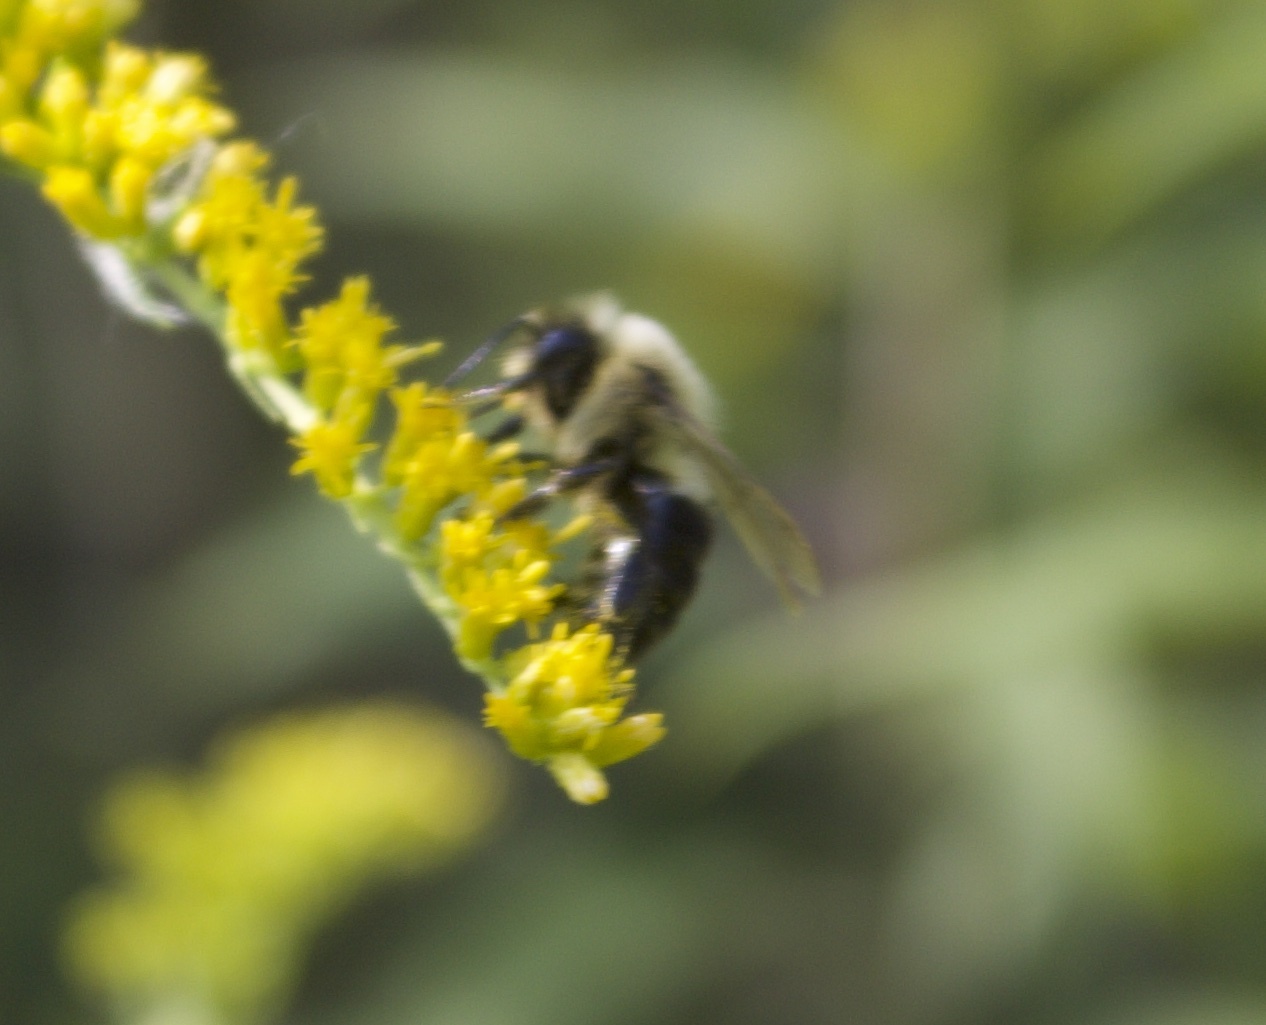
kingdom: Animalia
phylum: Arthropoda
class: Insecta
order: Hymenoptera
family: Apidae
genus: Bombus
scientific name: Bombus impatiens
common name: Common eastern bumble bee
